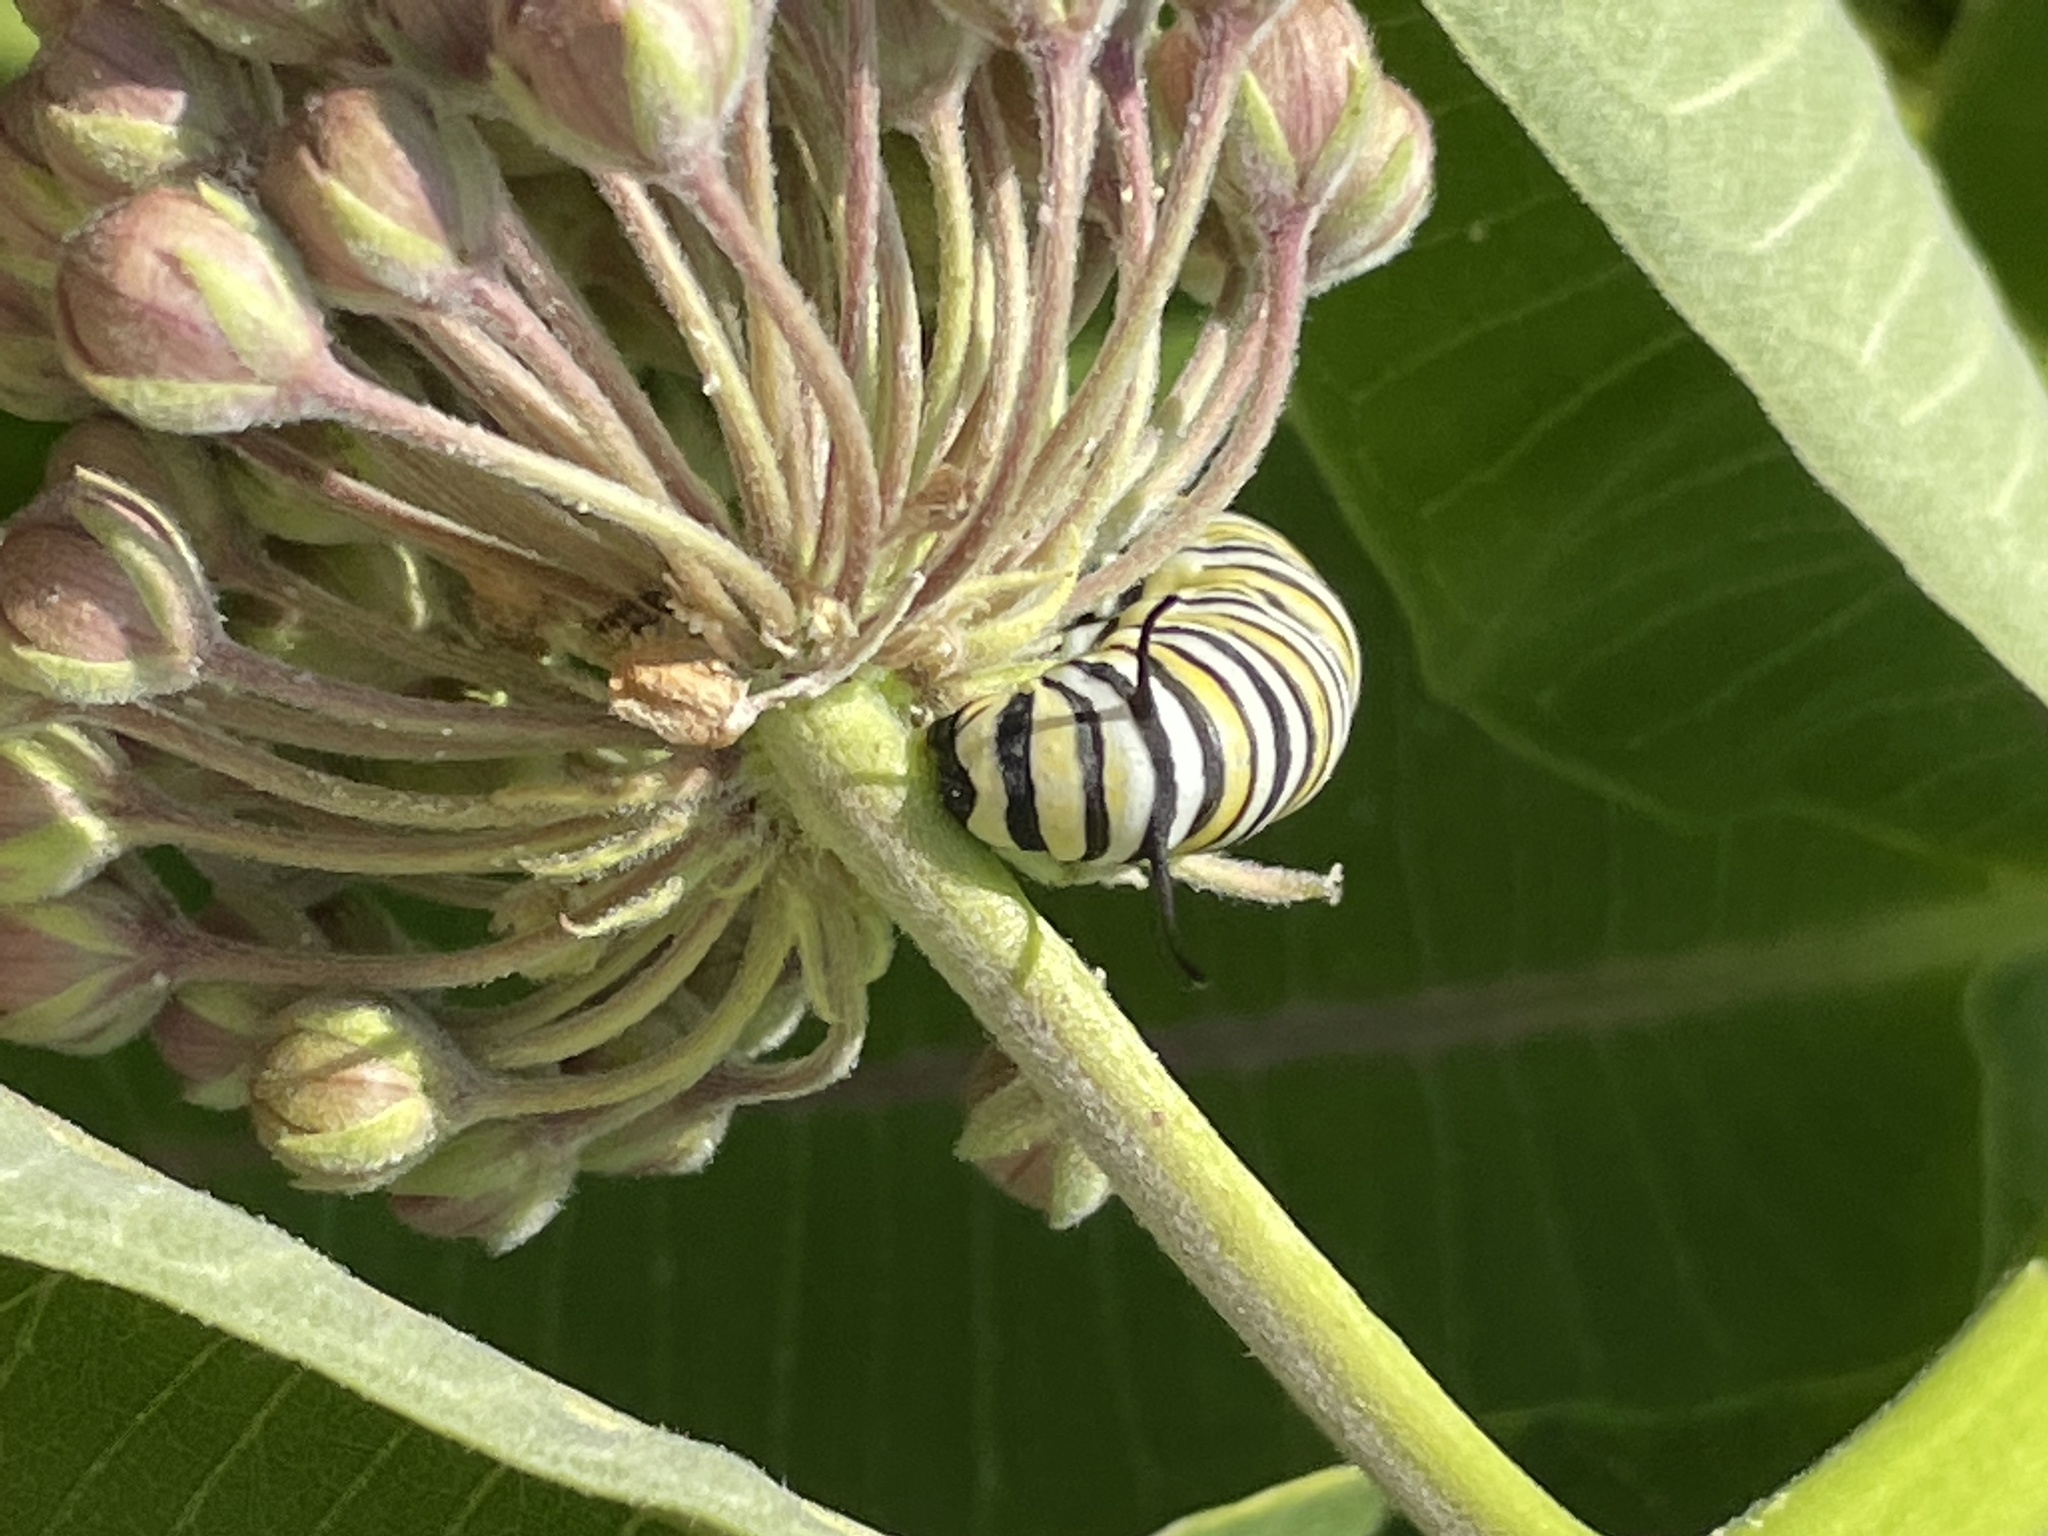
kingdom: Animalia
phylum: Arthropoda
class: Insecta
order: Lepidoptera
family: Nymphalidae
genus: Danaus
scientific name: Danaus plexippus
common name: Monarch
